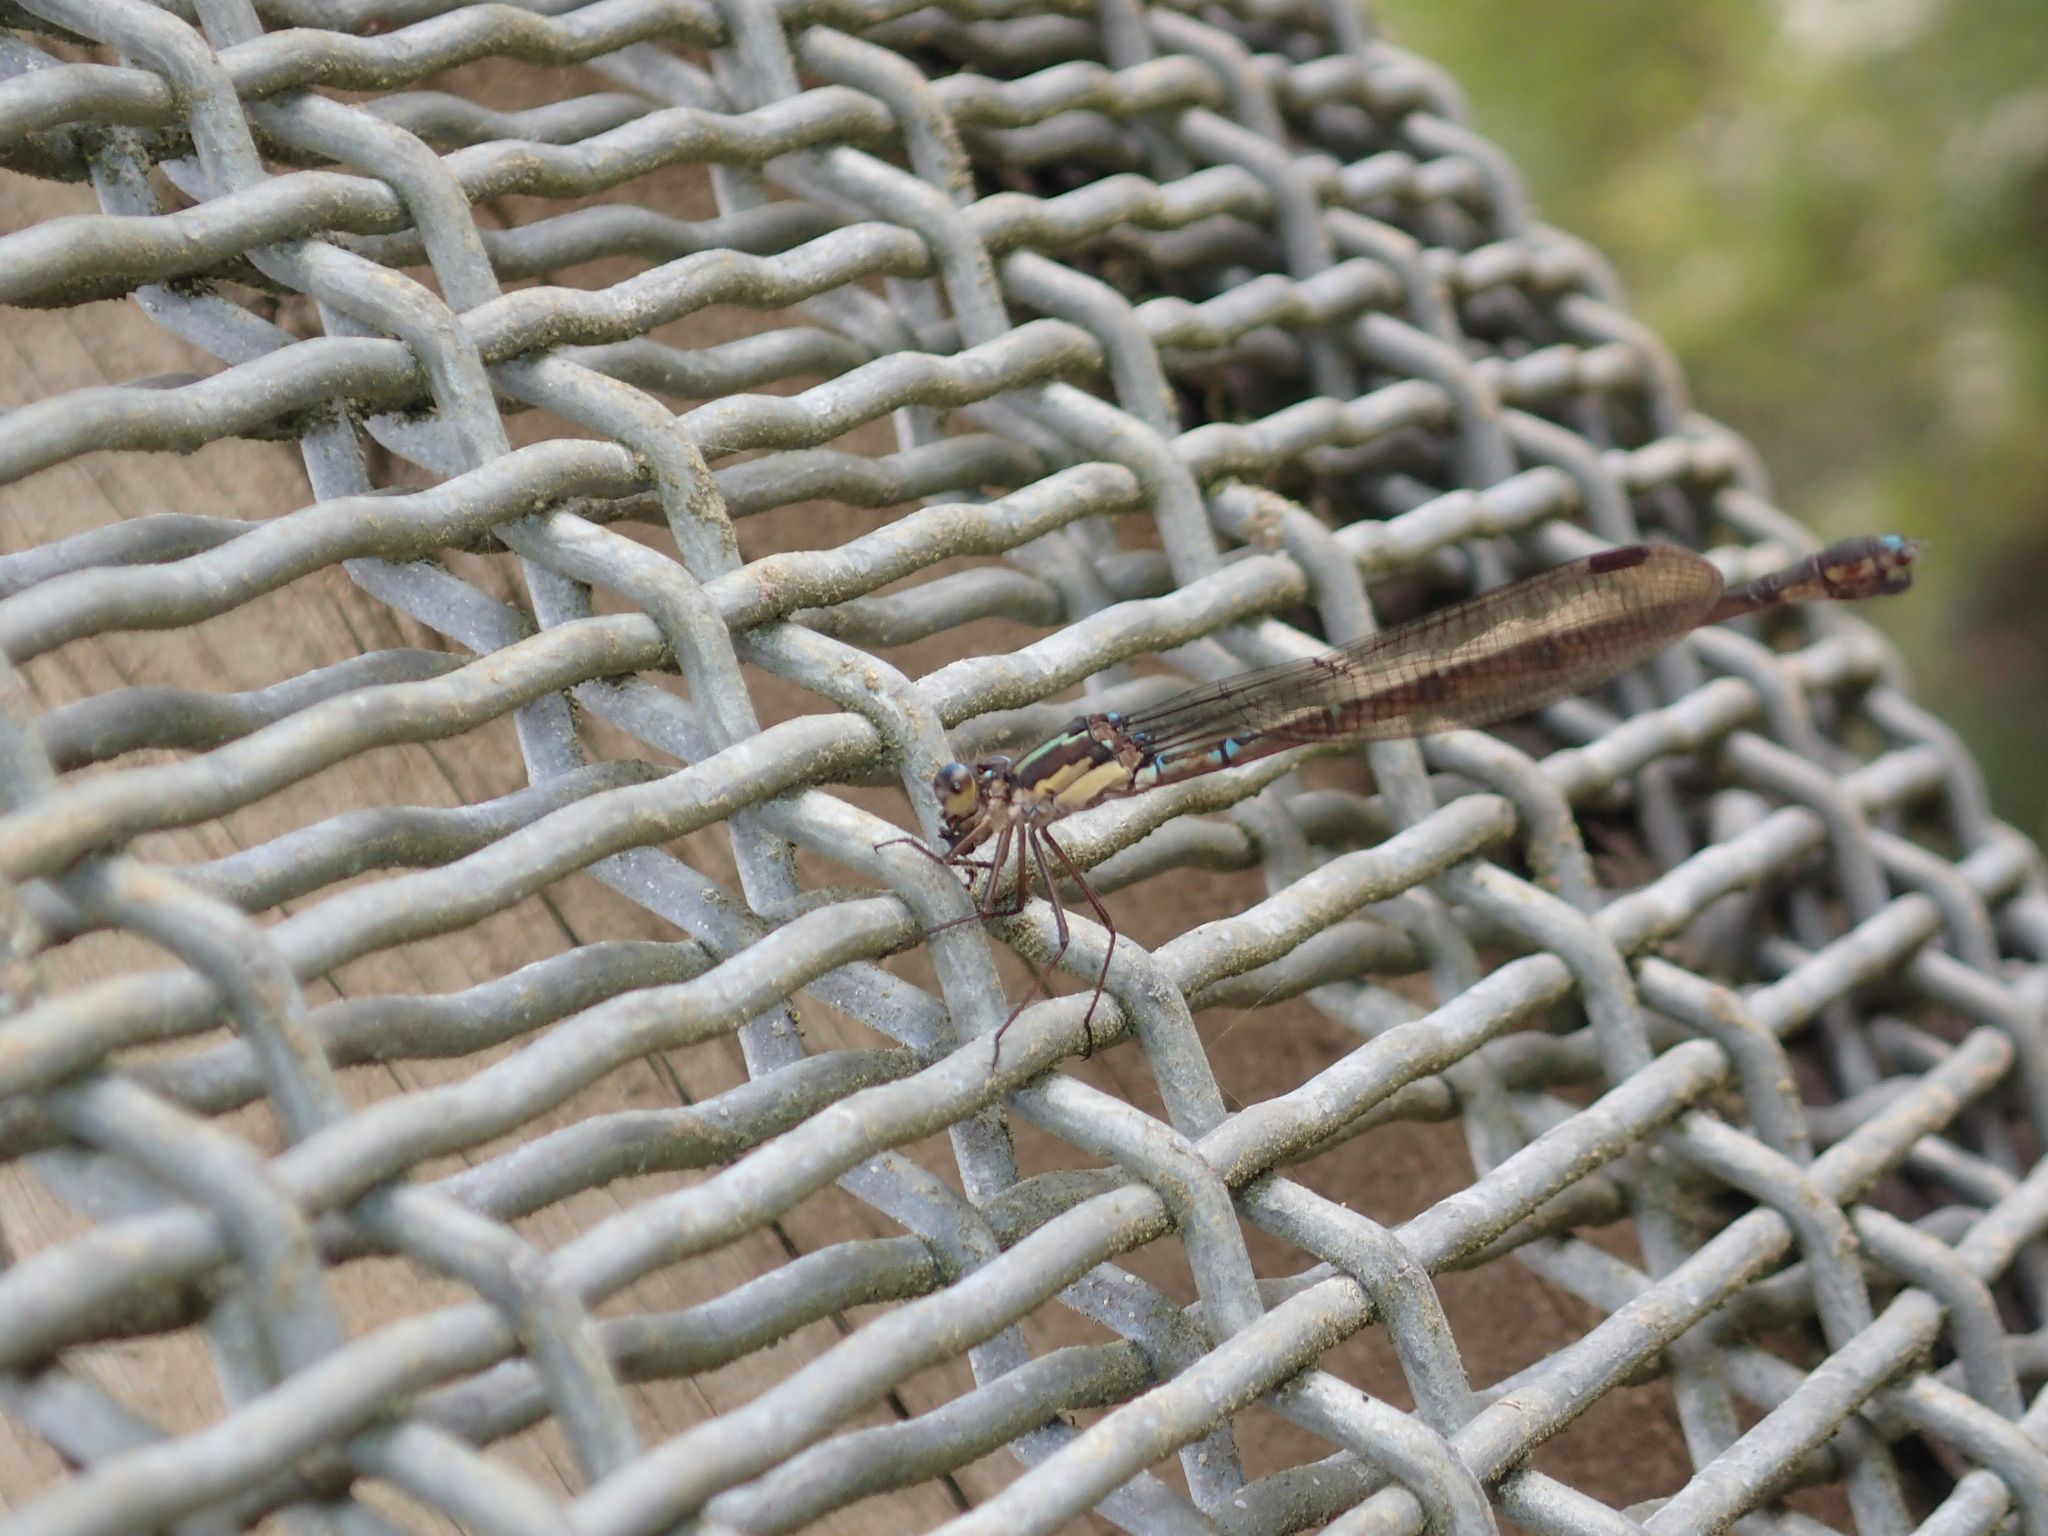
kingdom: Animalia
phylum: Arthropoda
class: Insecta
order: Odonata
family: Lestidae
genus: Austrolestes
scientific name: Austrolestes colensonis
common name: Blue damselfly
